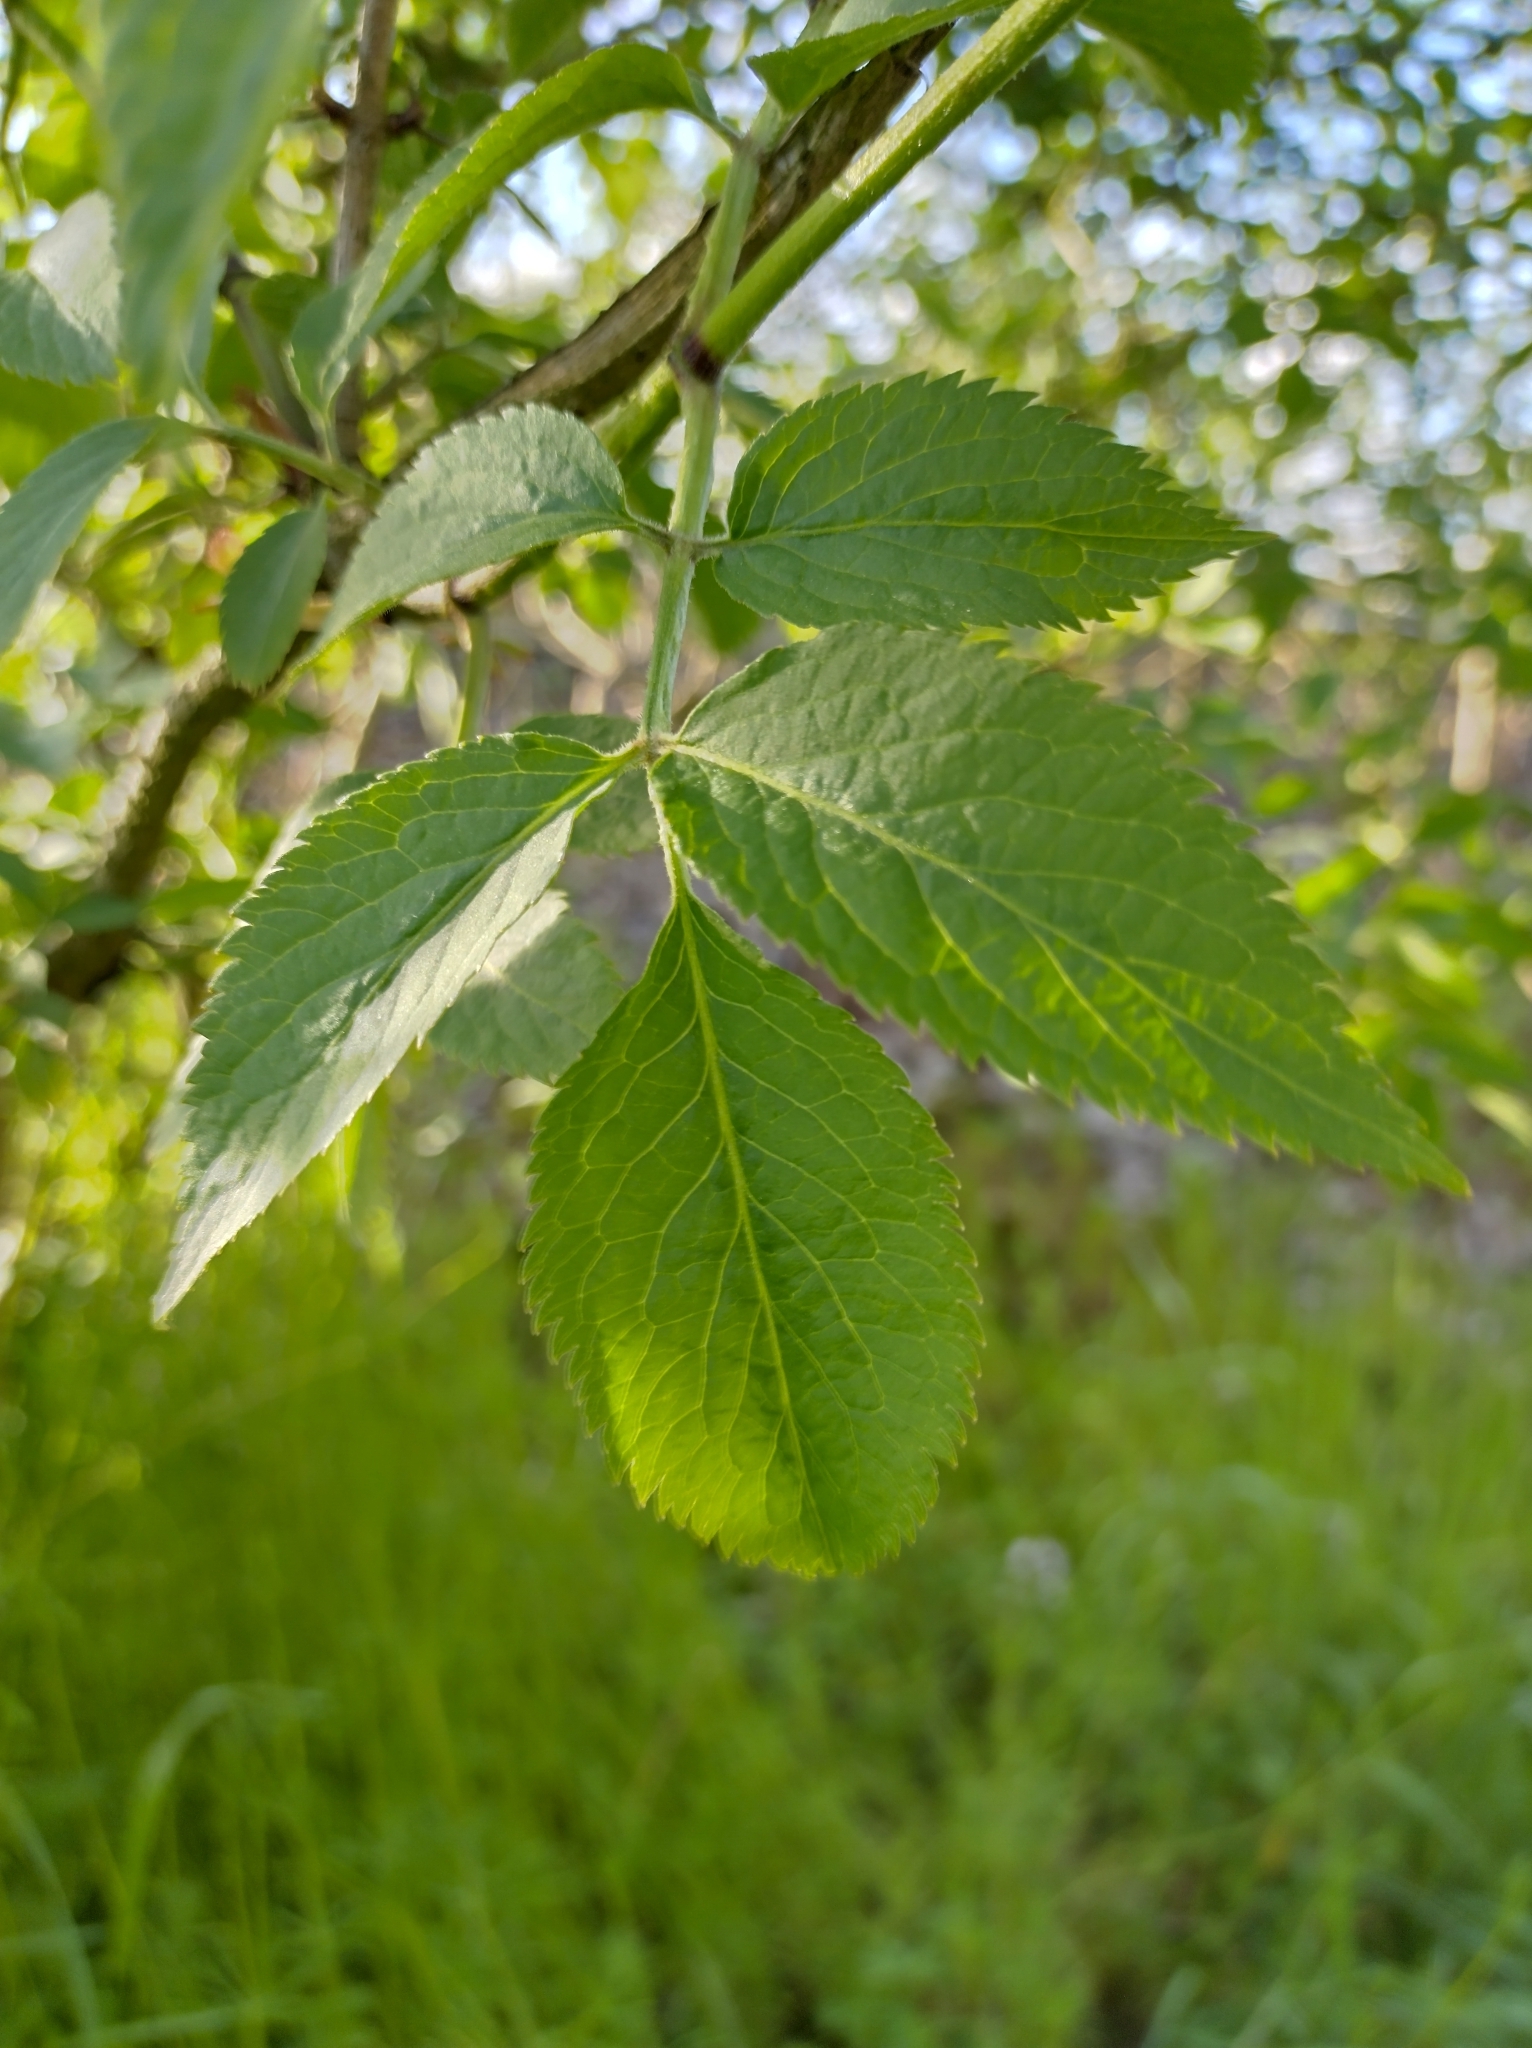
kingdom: Plantae
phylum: Tracheophyta
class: Magnoliopsida
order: Dipsacales
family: Viburnaceae
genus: Sambucus
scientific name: Sambucus nigra
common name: Elder
